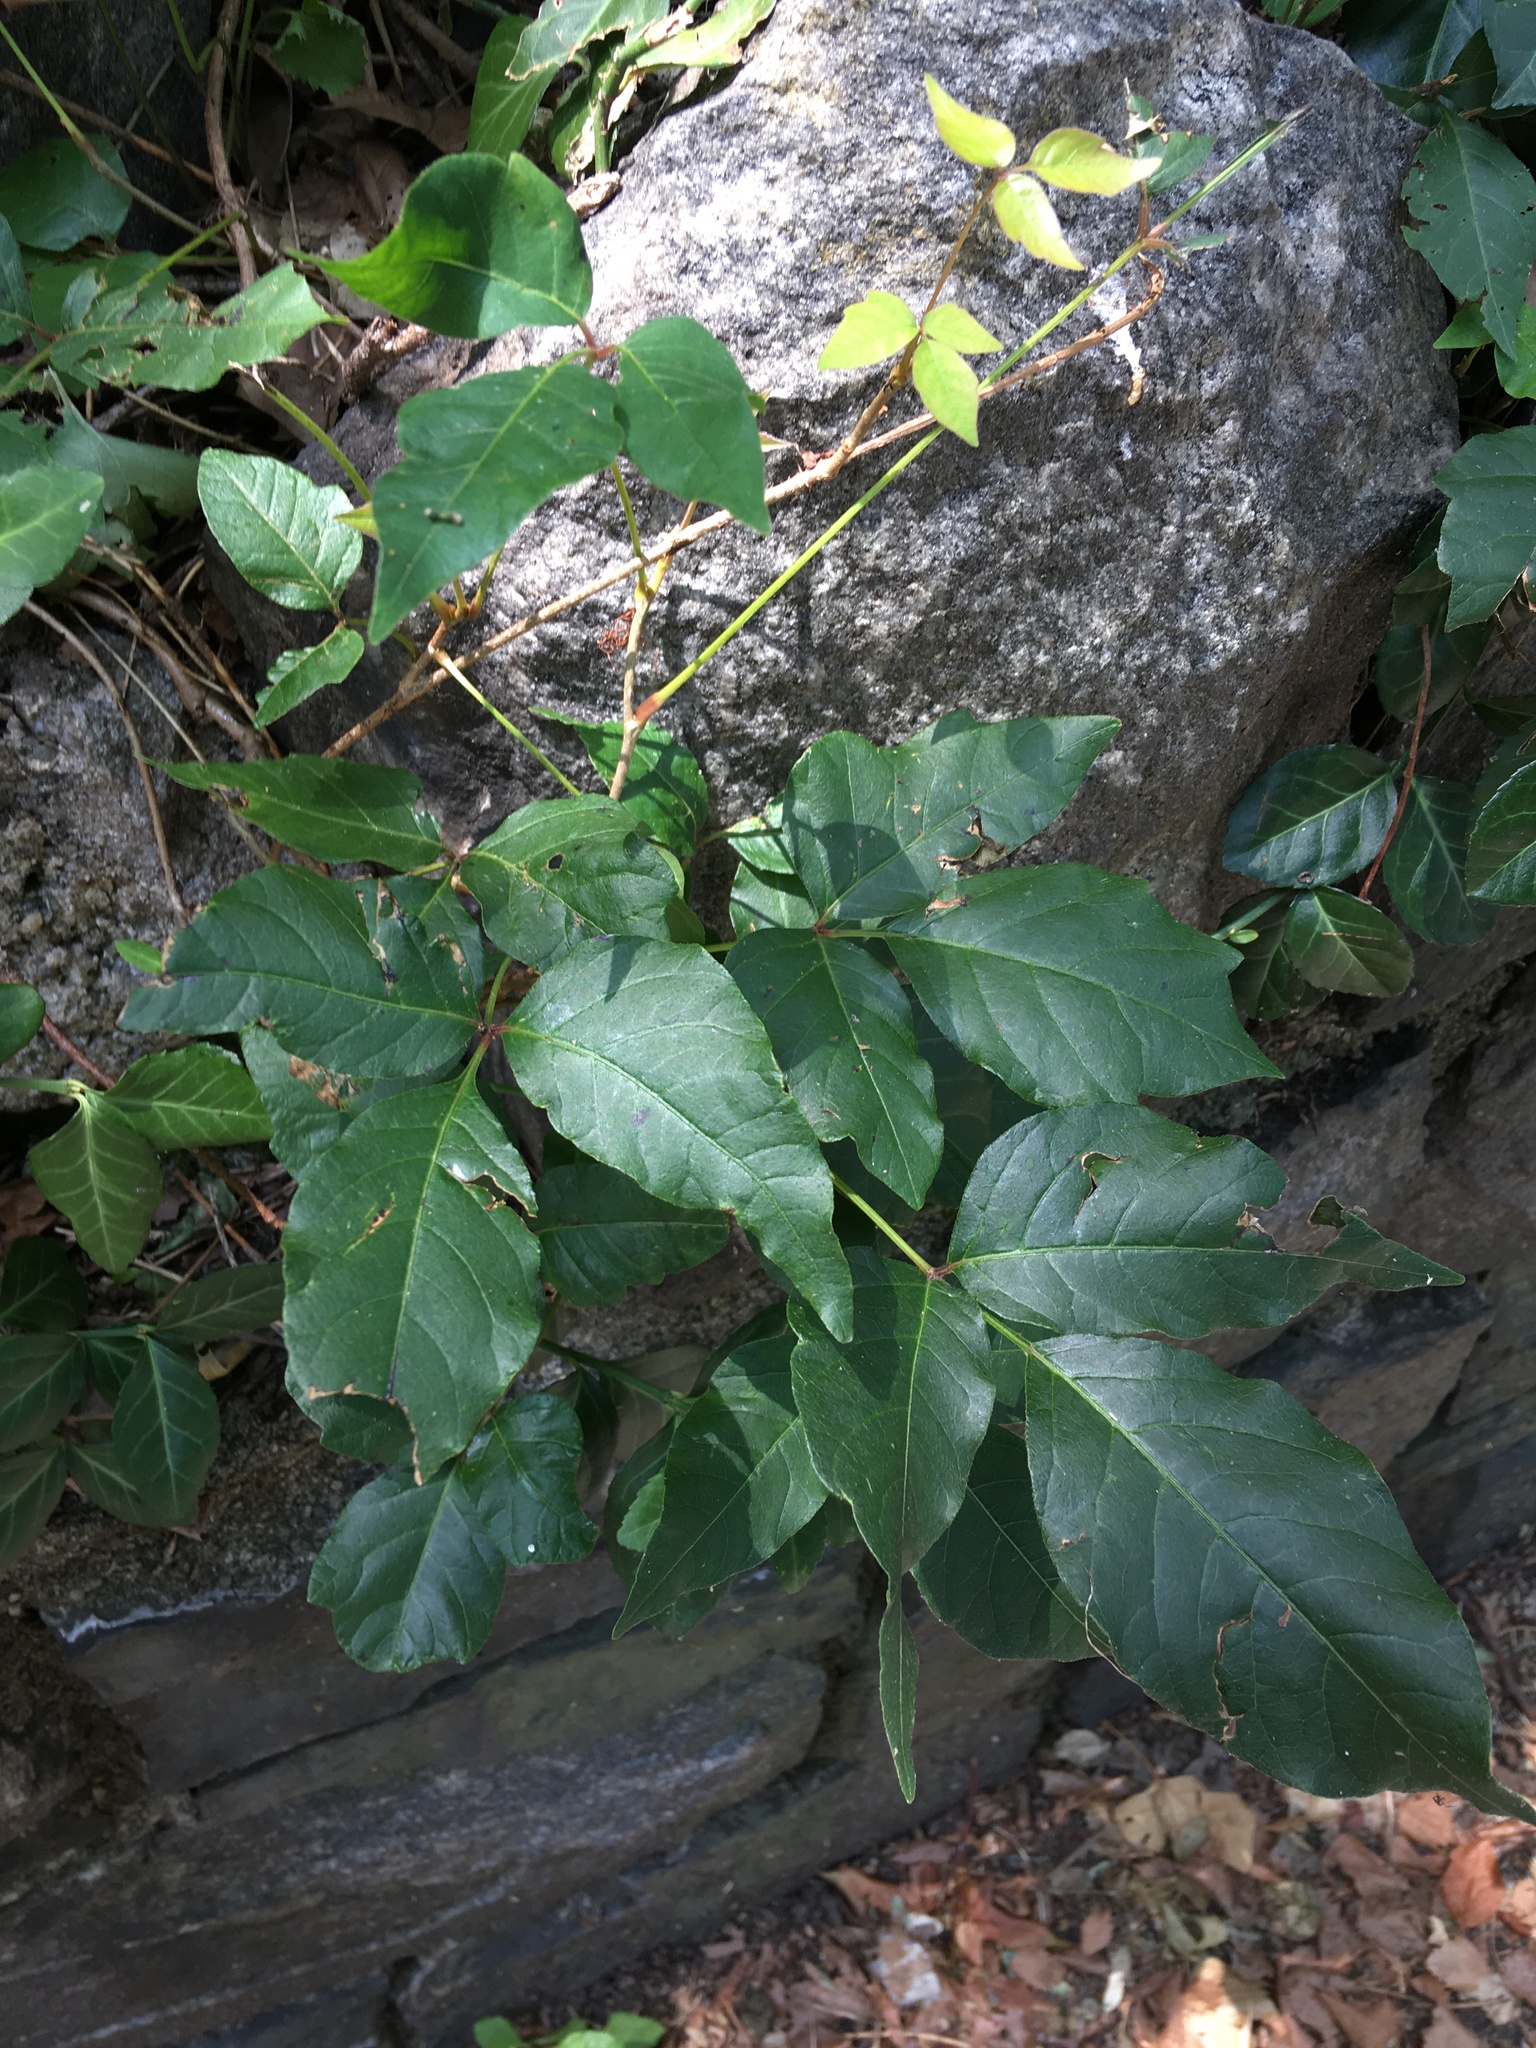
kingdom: Plantae
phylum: Tracheophyta
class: Magnoliopsida
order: Sapindales
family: Anacardiaceae
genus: Toxicodendron
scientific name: Toxicodendron radicans
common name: Poison ivy
